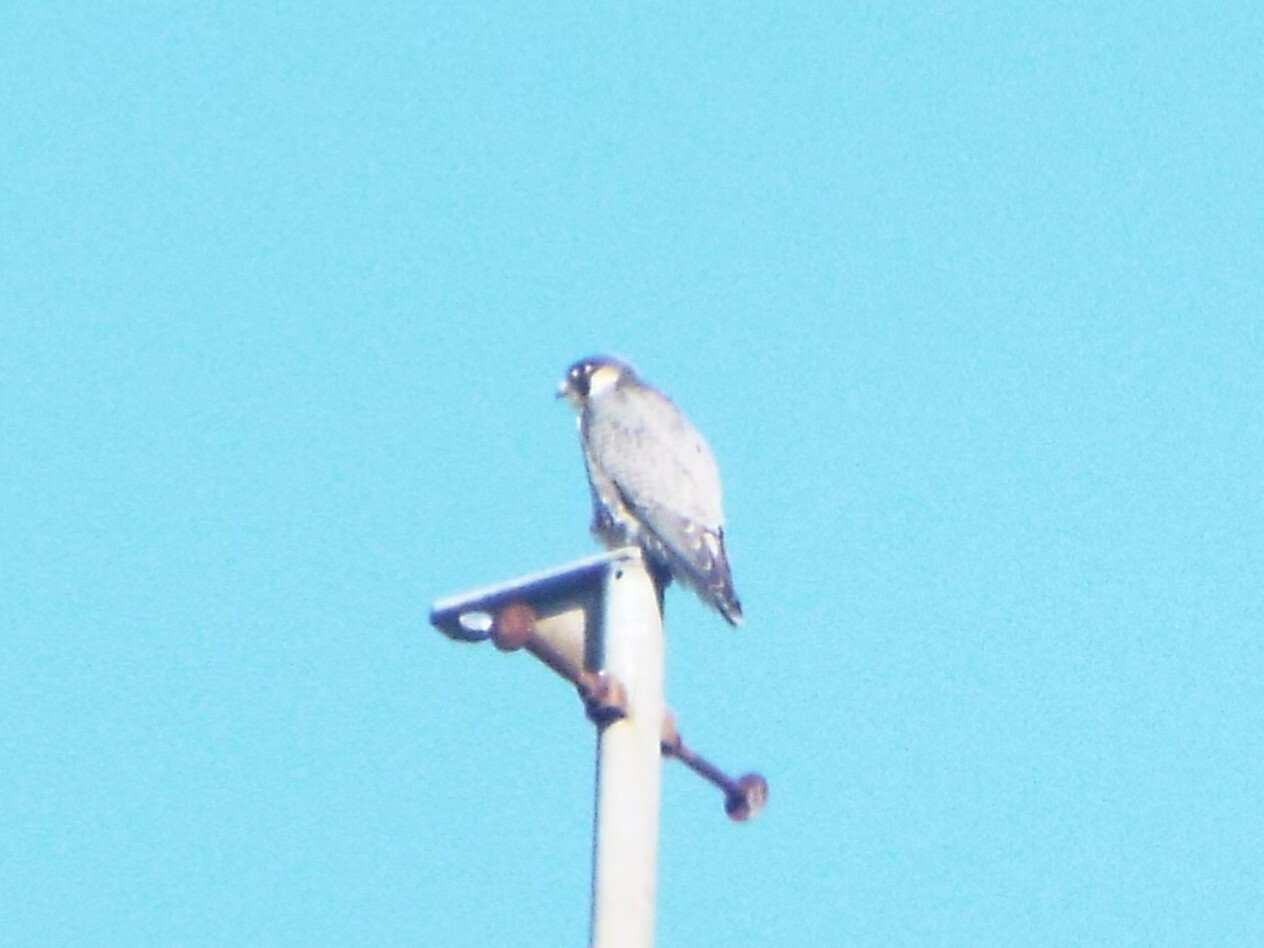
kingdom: Animalia
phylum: Chordata
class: Aves
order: Falconiformes
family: Falconidae
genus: Falco
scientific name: Falco peregrinus
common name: Peregrine falcon
